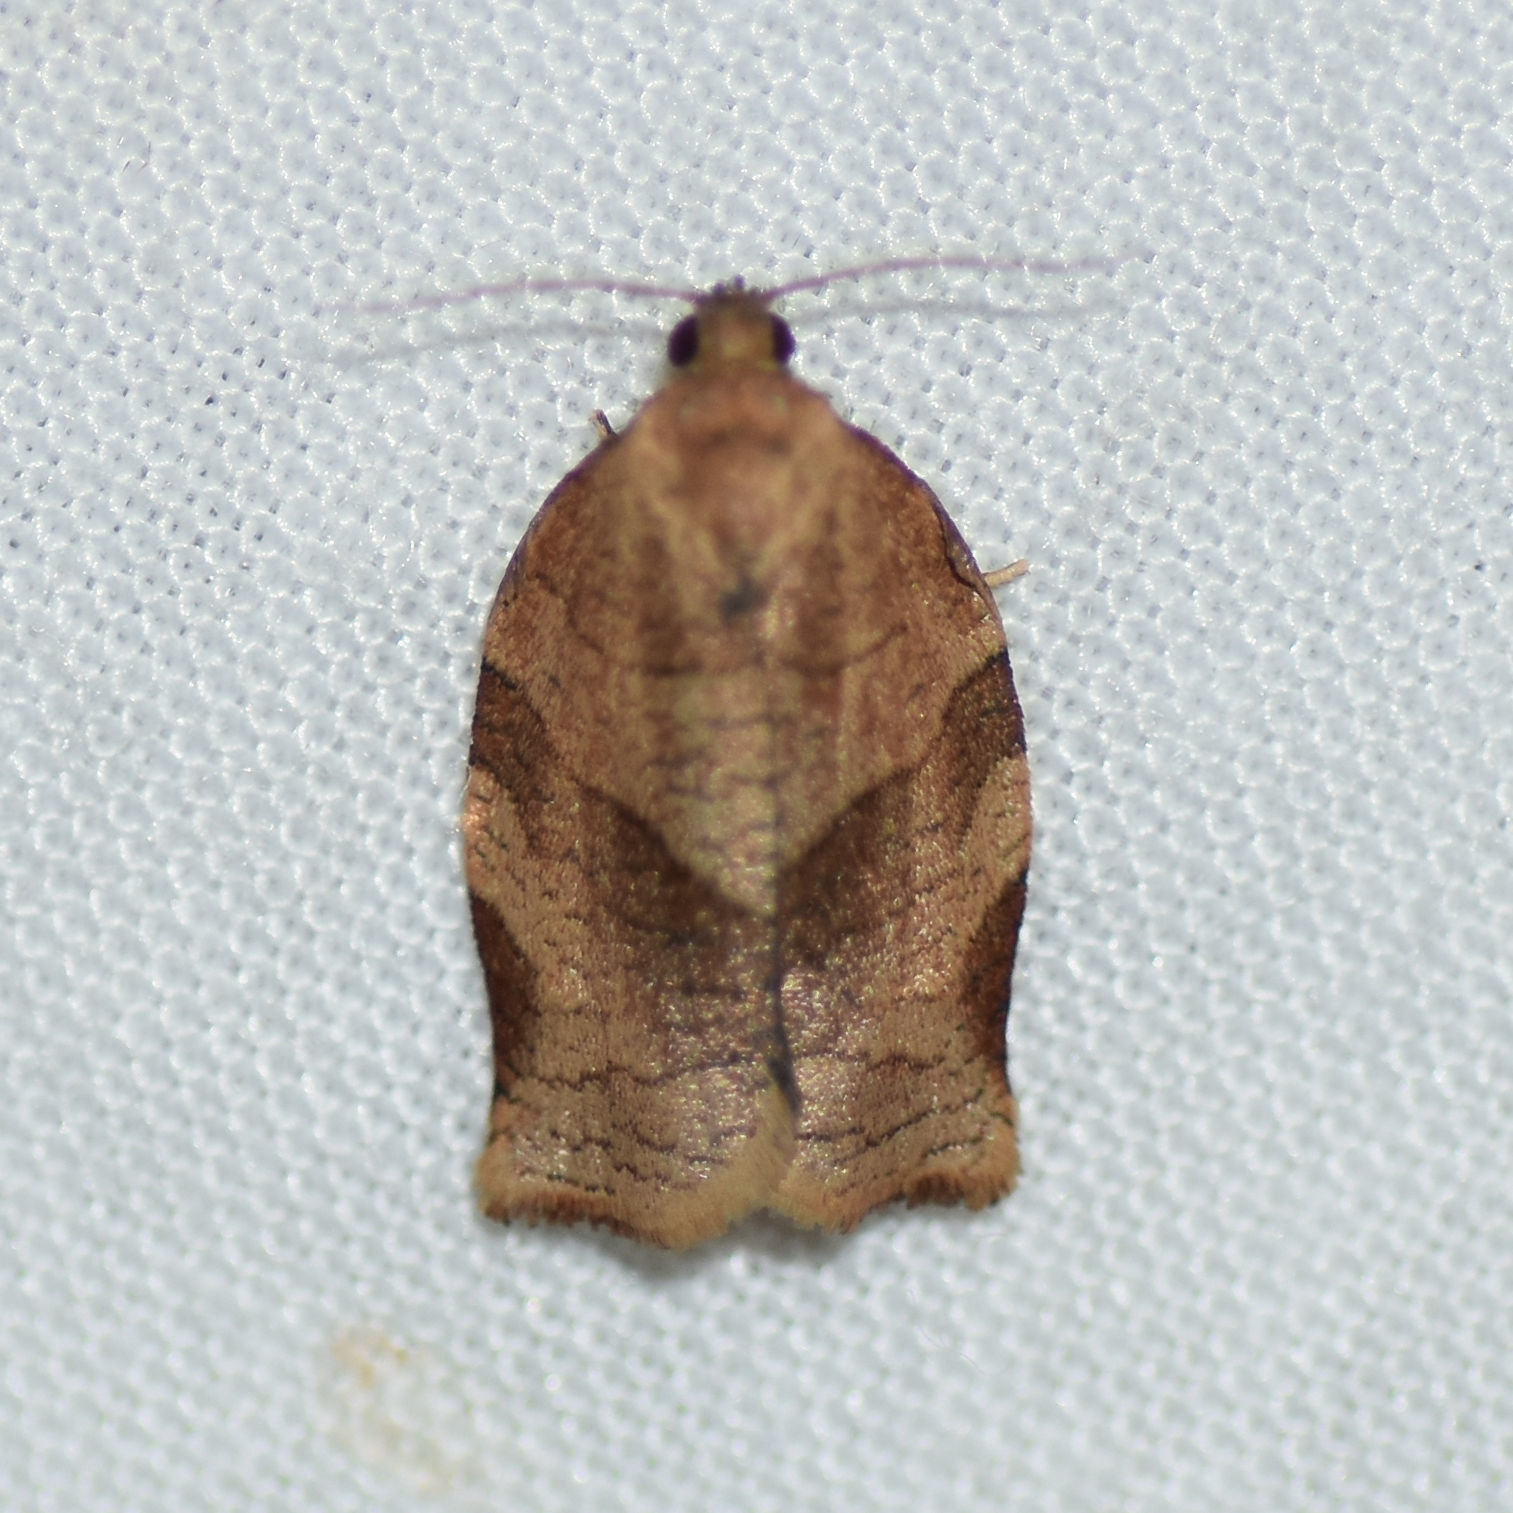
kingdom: Animalia
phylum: Arthropoda
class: Insecta
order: Lepidoptera
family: Tortricidae
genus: Choristoneura
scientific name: Choristoneura rosaceana
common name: Oblique-banded leafroller moth
